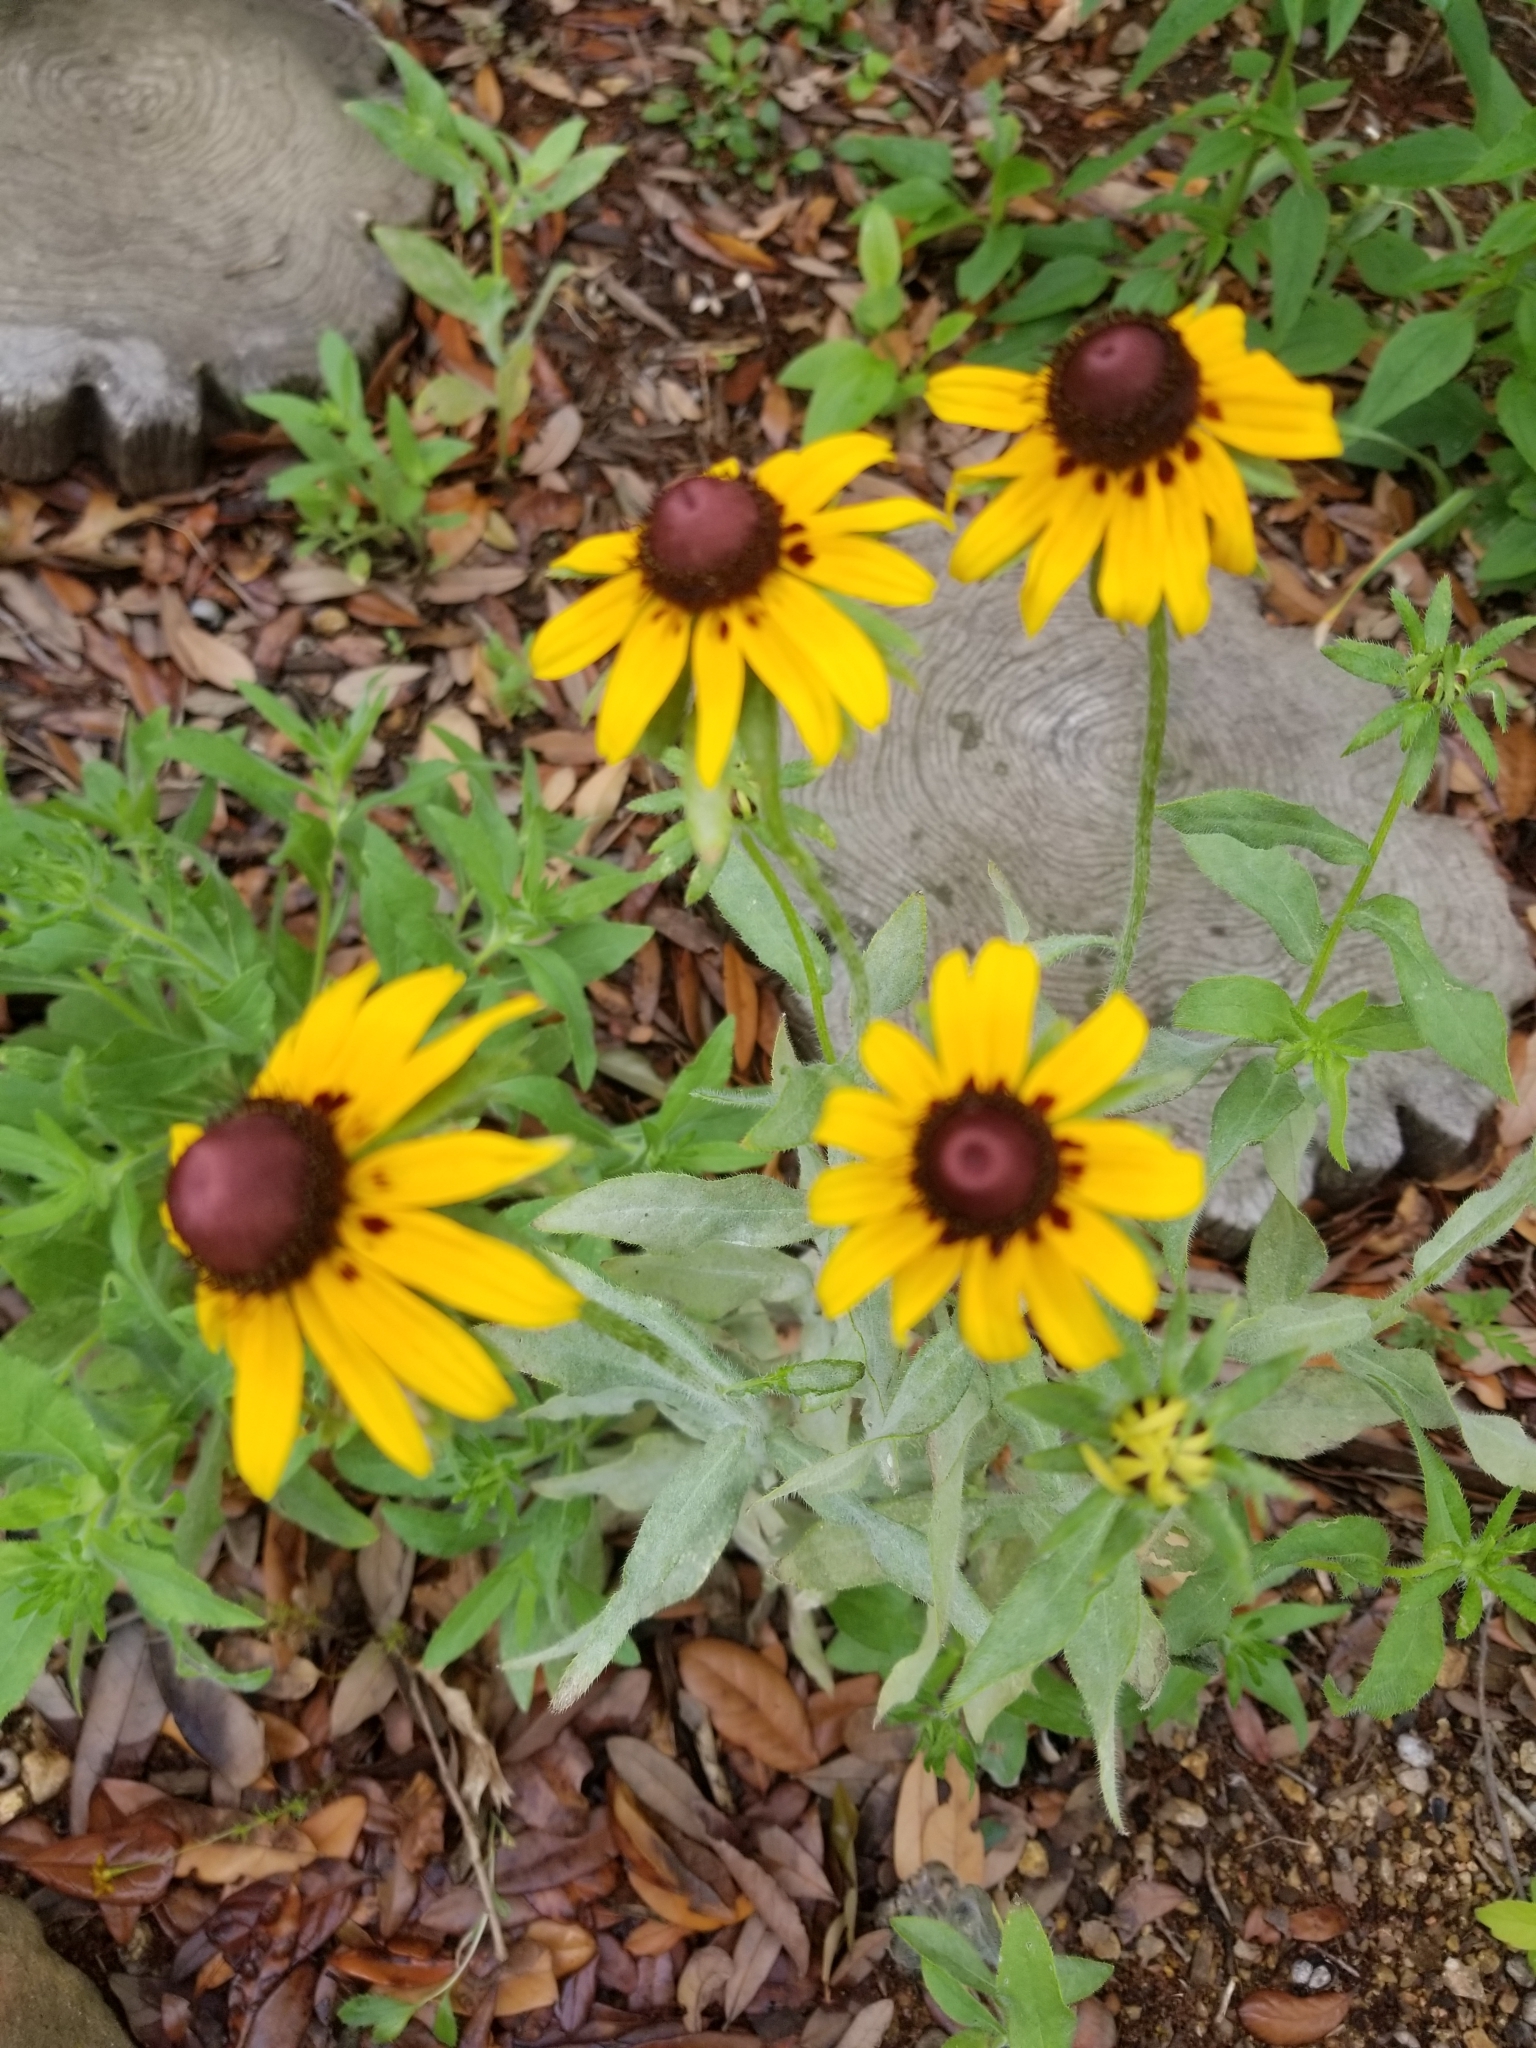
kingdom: Plantae
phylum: Tracheophyta
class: Magnoliopsida
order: Asterales
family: Asteraceae
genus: Rudbeckia
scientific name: Rudbeckia hirta
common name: Black-eyed-susan
